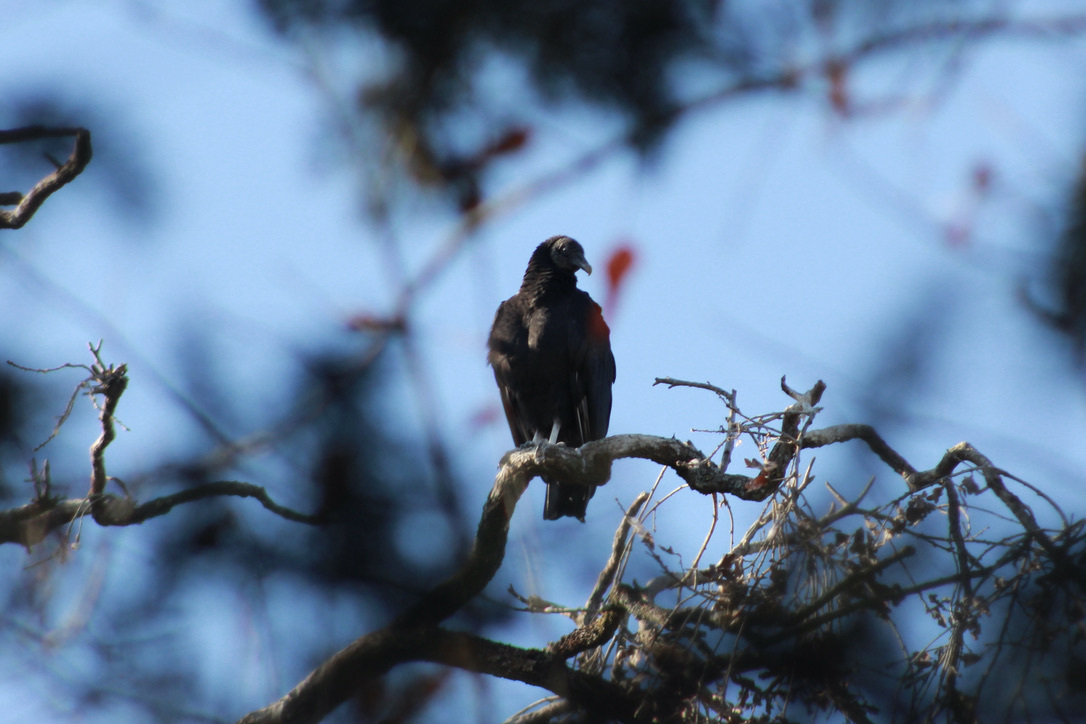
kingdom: Animalia
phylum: Chordata
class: Aves
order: Accipitriformes
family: Cathartidae
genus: Coragyps
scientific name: Coragyps atratus
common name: Black vulture
